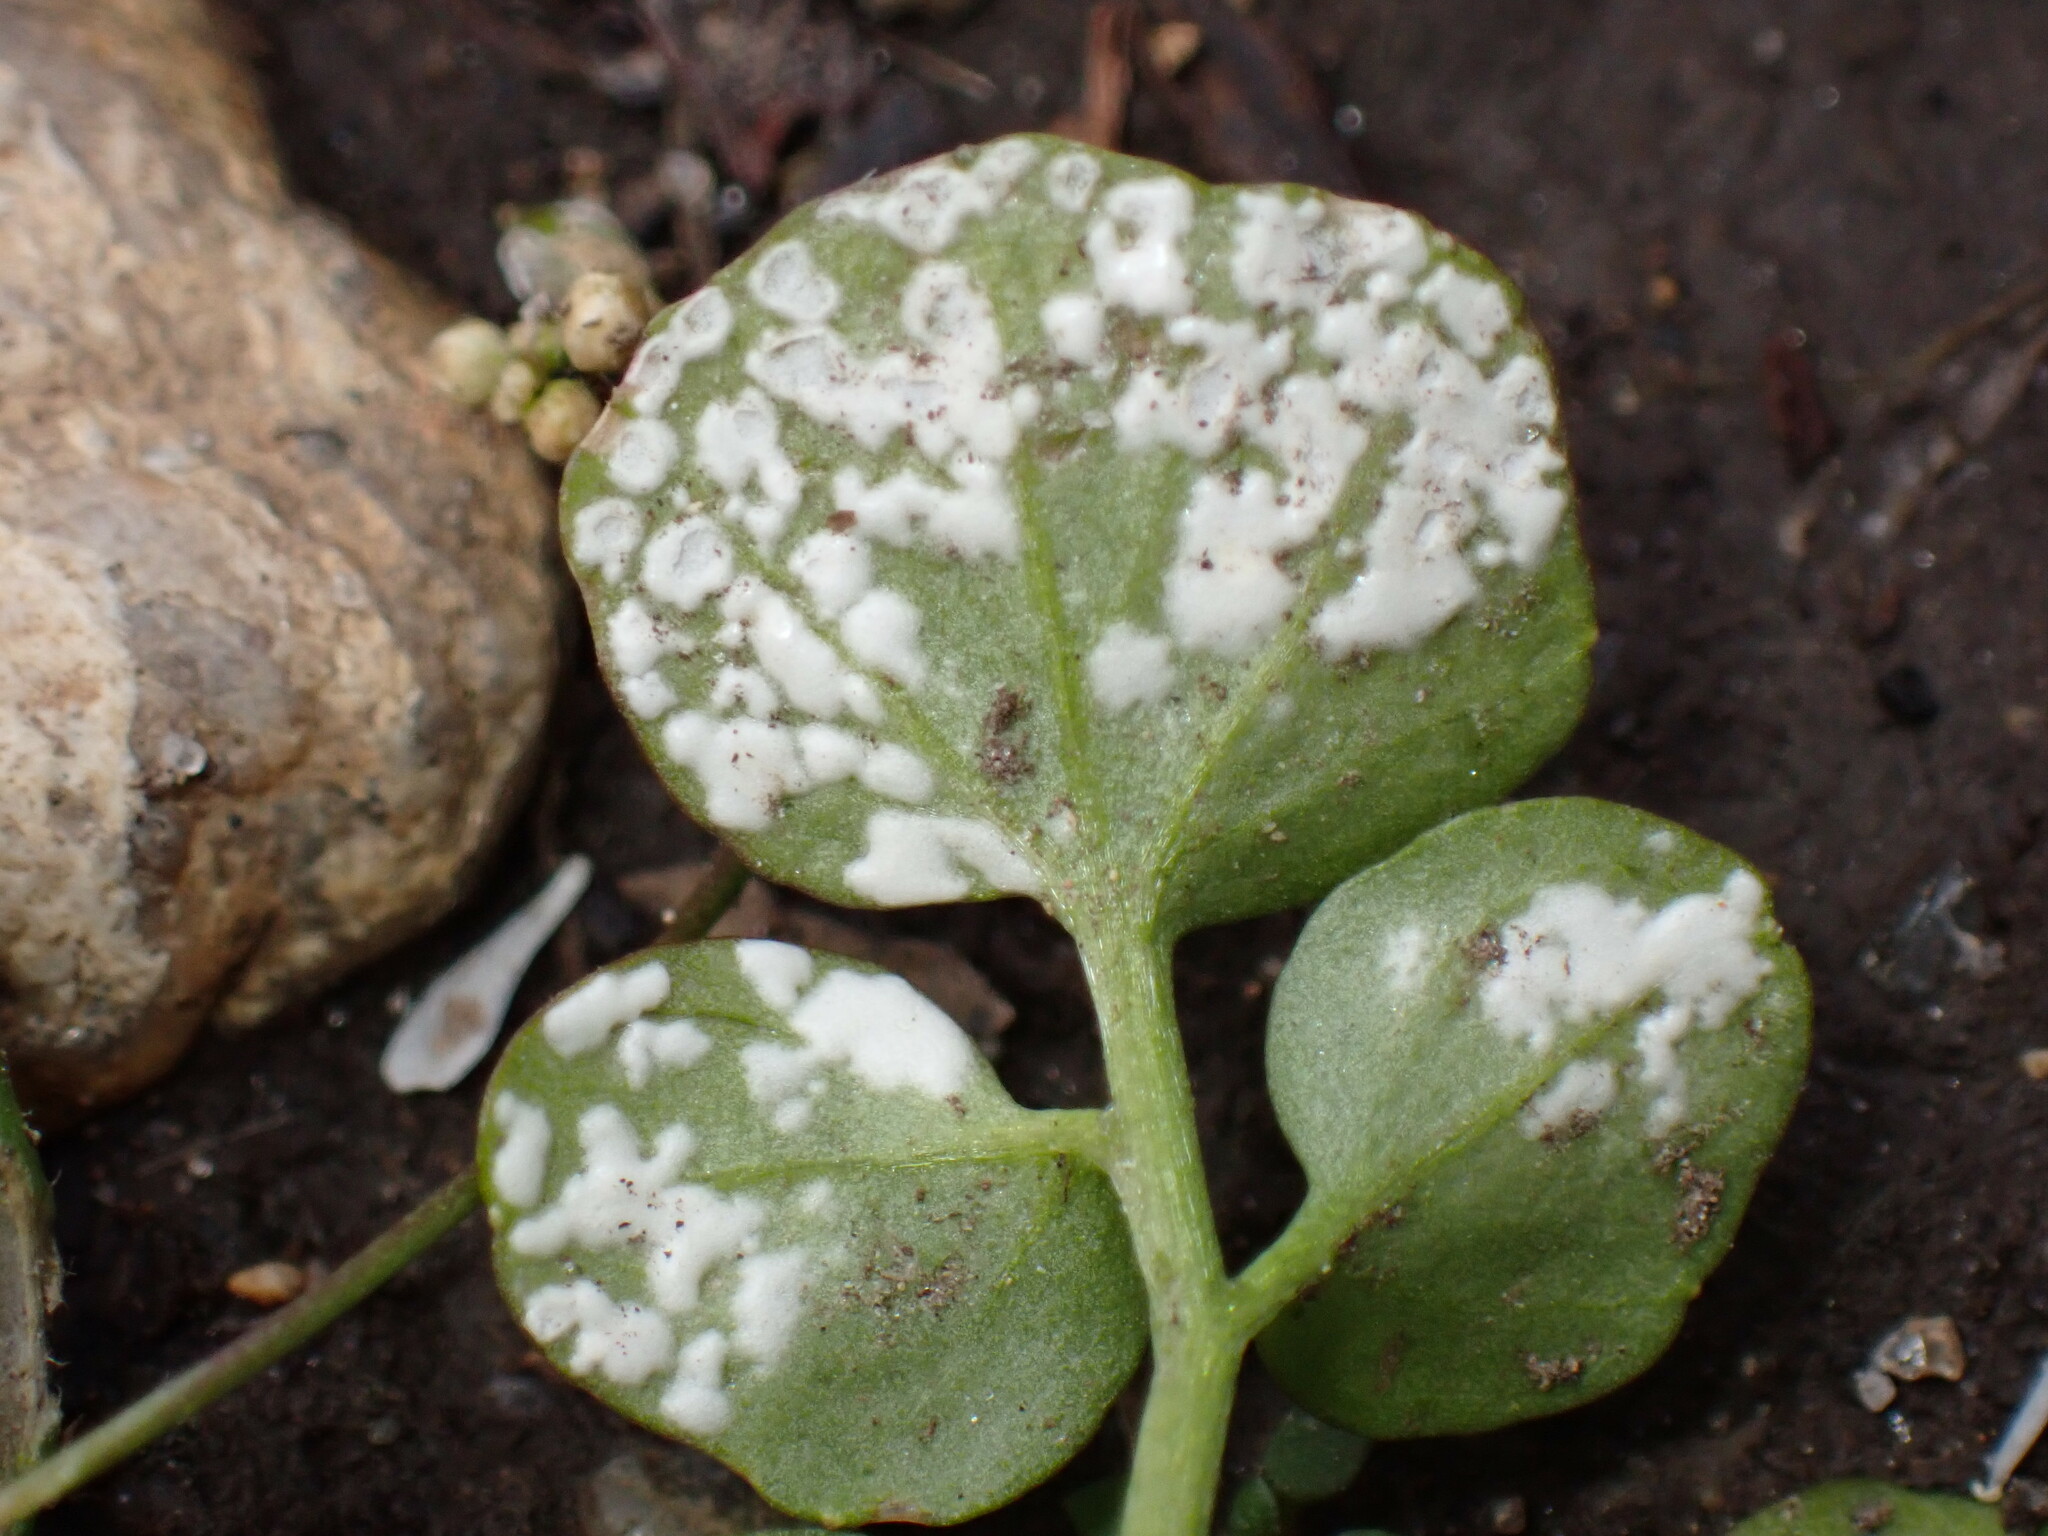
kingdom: Chromista
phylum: Oomycota
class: Peronosporea
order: Albuginales
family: Albuginaceae
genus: Albugo
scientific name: Albugo hohenheimia
